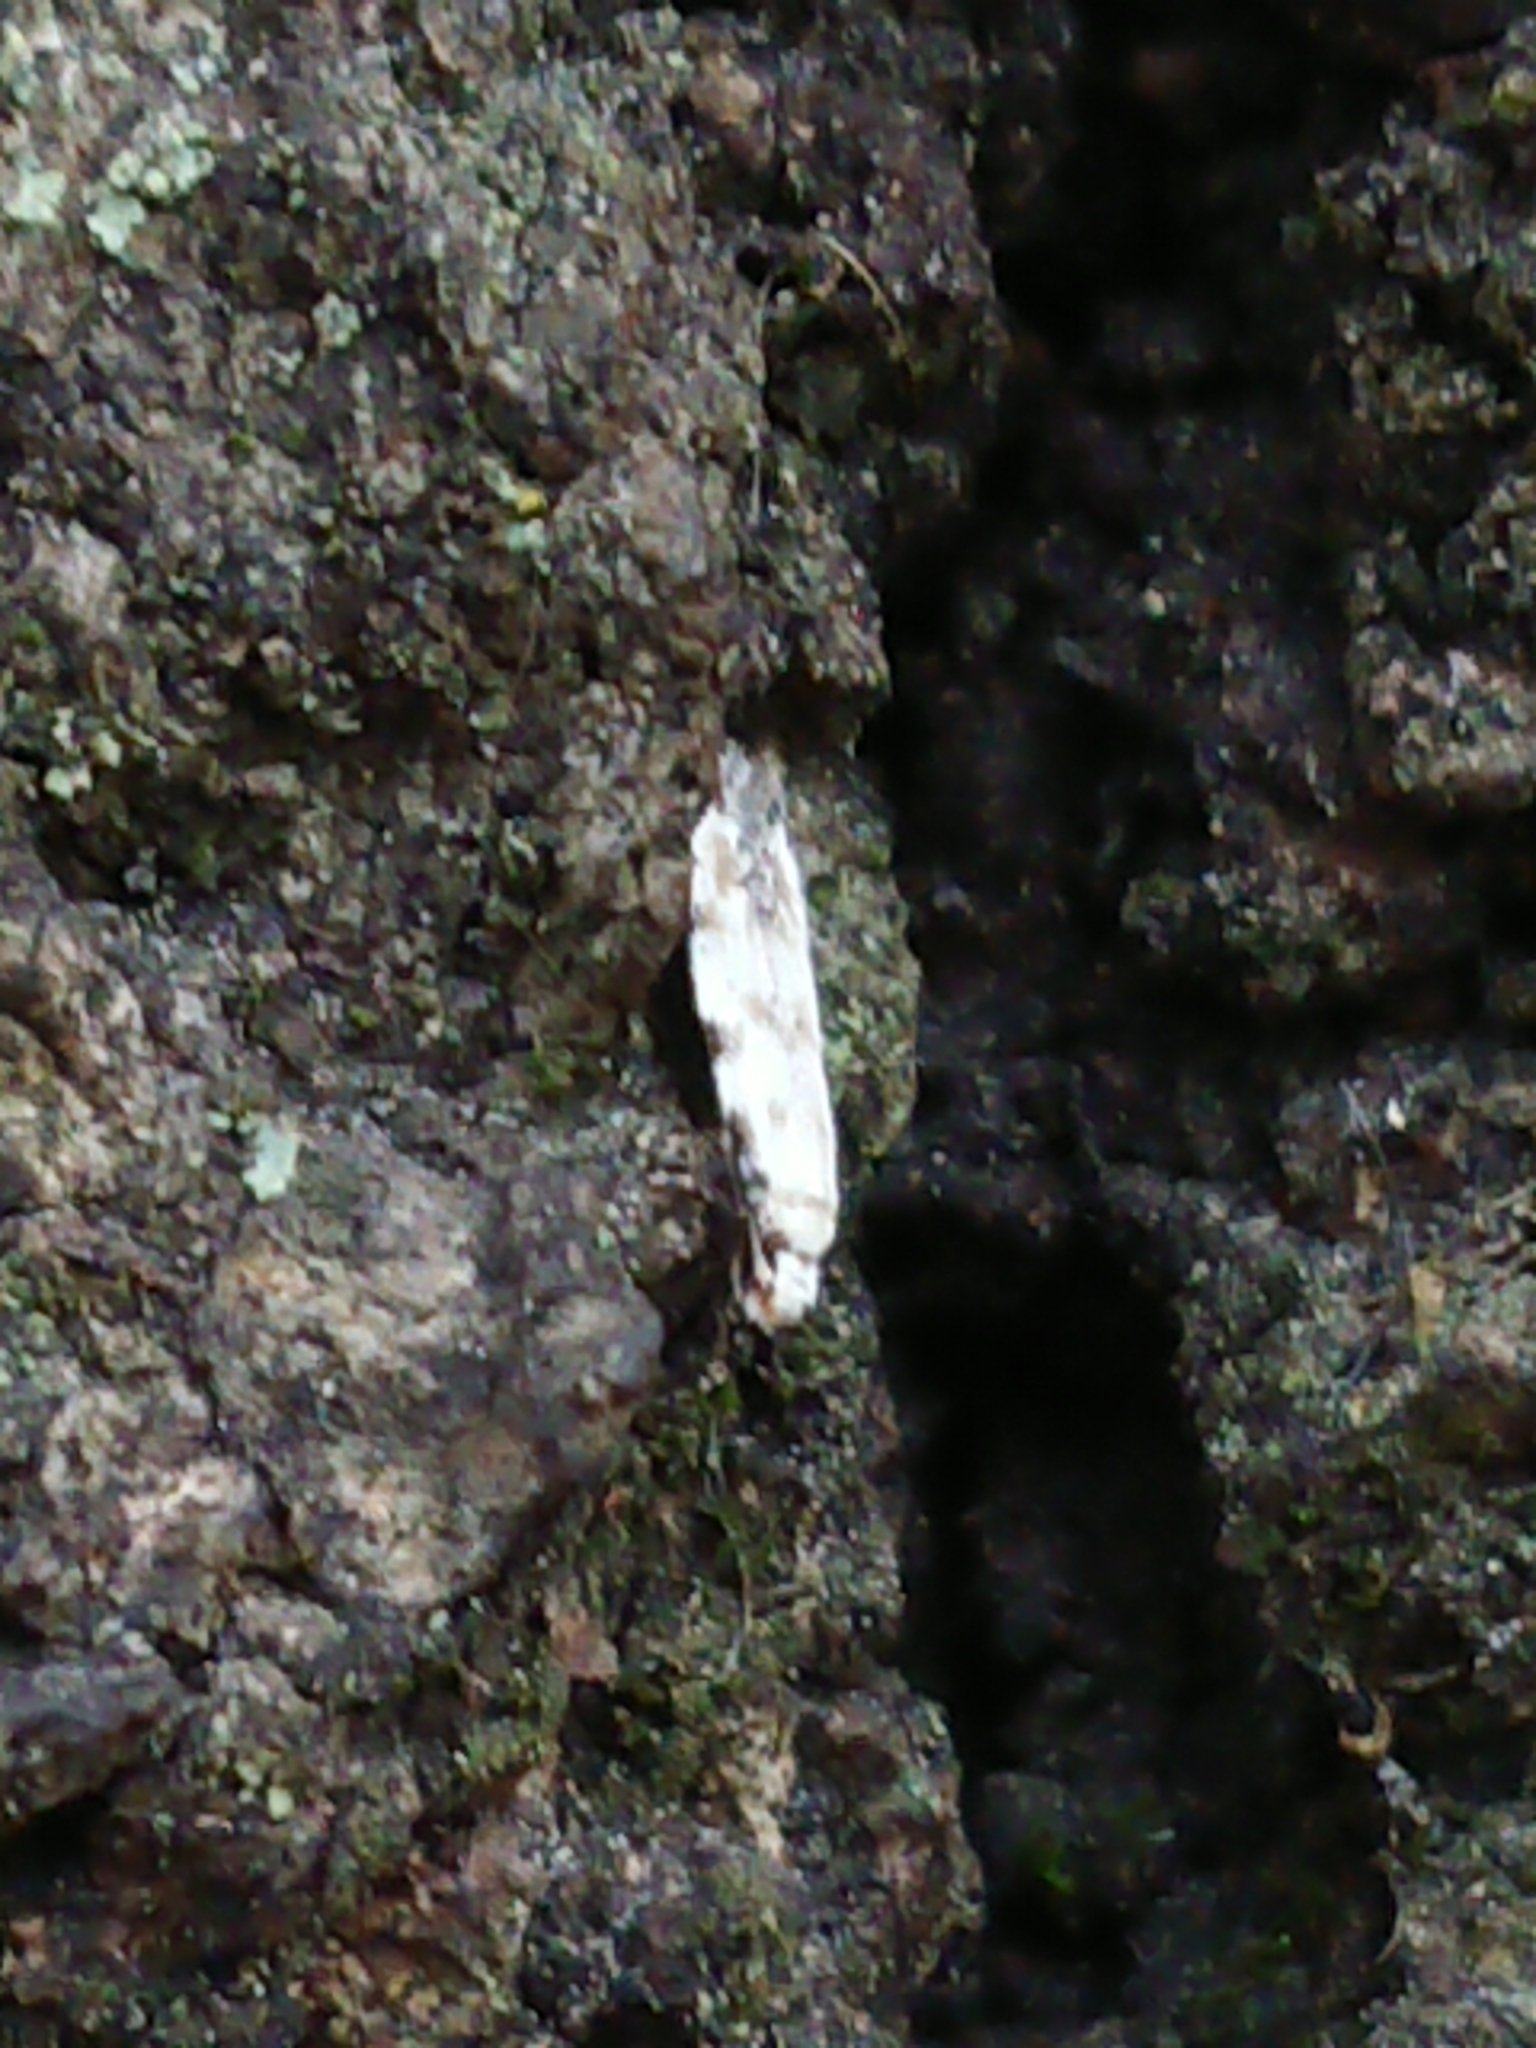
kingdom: Animalia
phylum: Arthropoda
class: Insecta
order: Lepidoptera
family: Tineidae
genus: Crypsitricha
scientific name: Crypsitricha stereota
